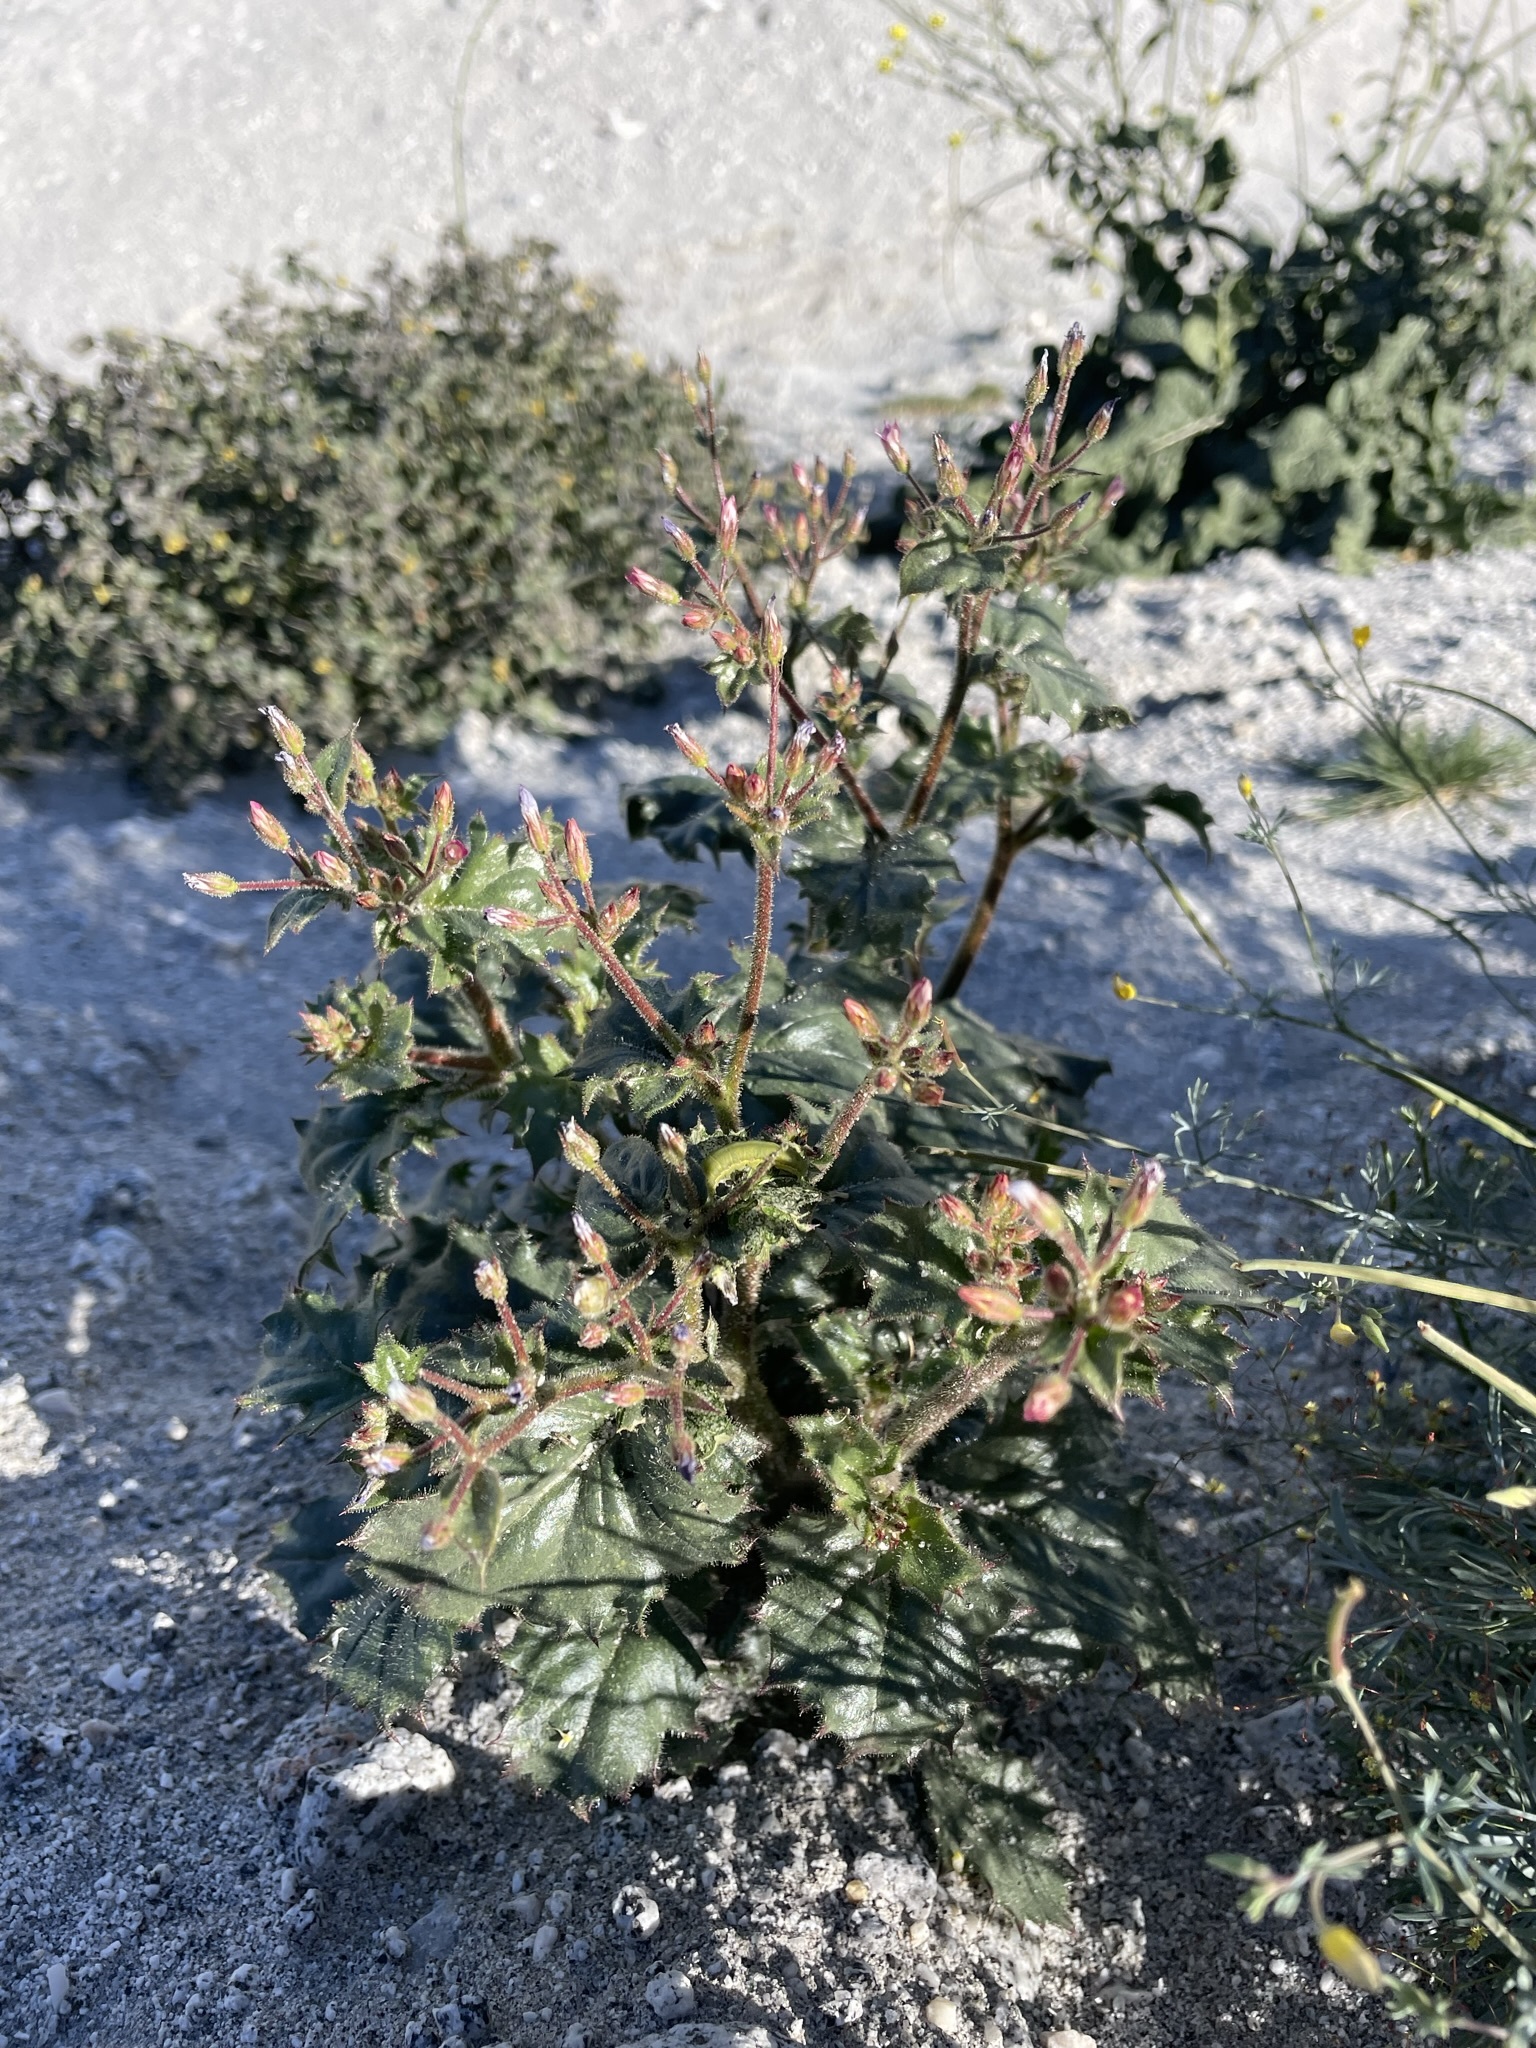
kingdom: Plantae
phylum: Tracheophyta
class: Magnoliopsida
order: Ericales
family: Polemoniaceae
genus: Aliciella
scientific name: Aliciella latifolia
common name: Broad-leaf gilia
